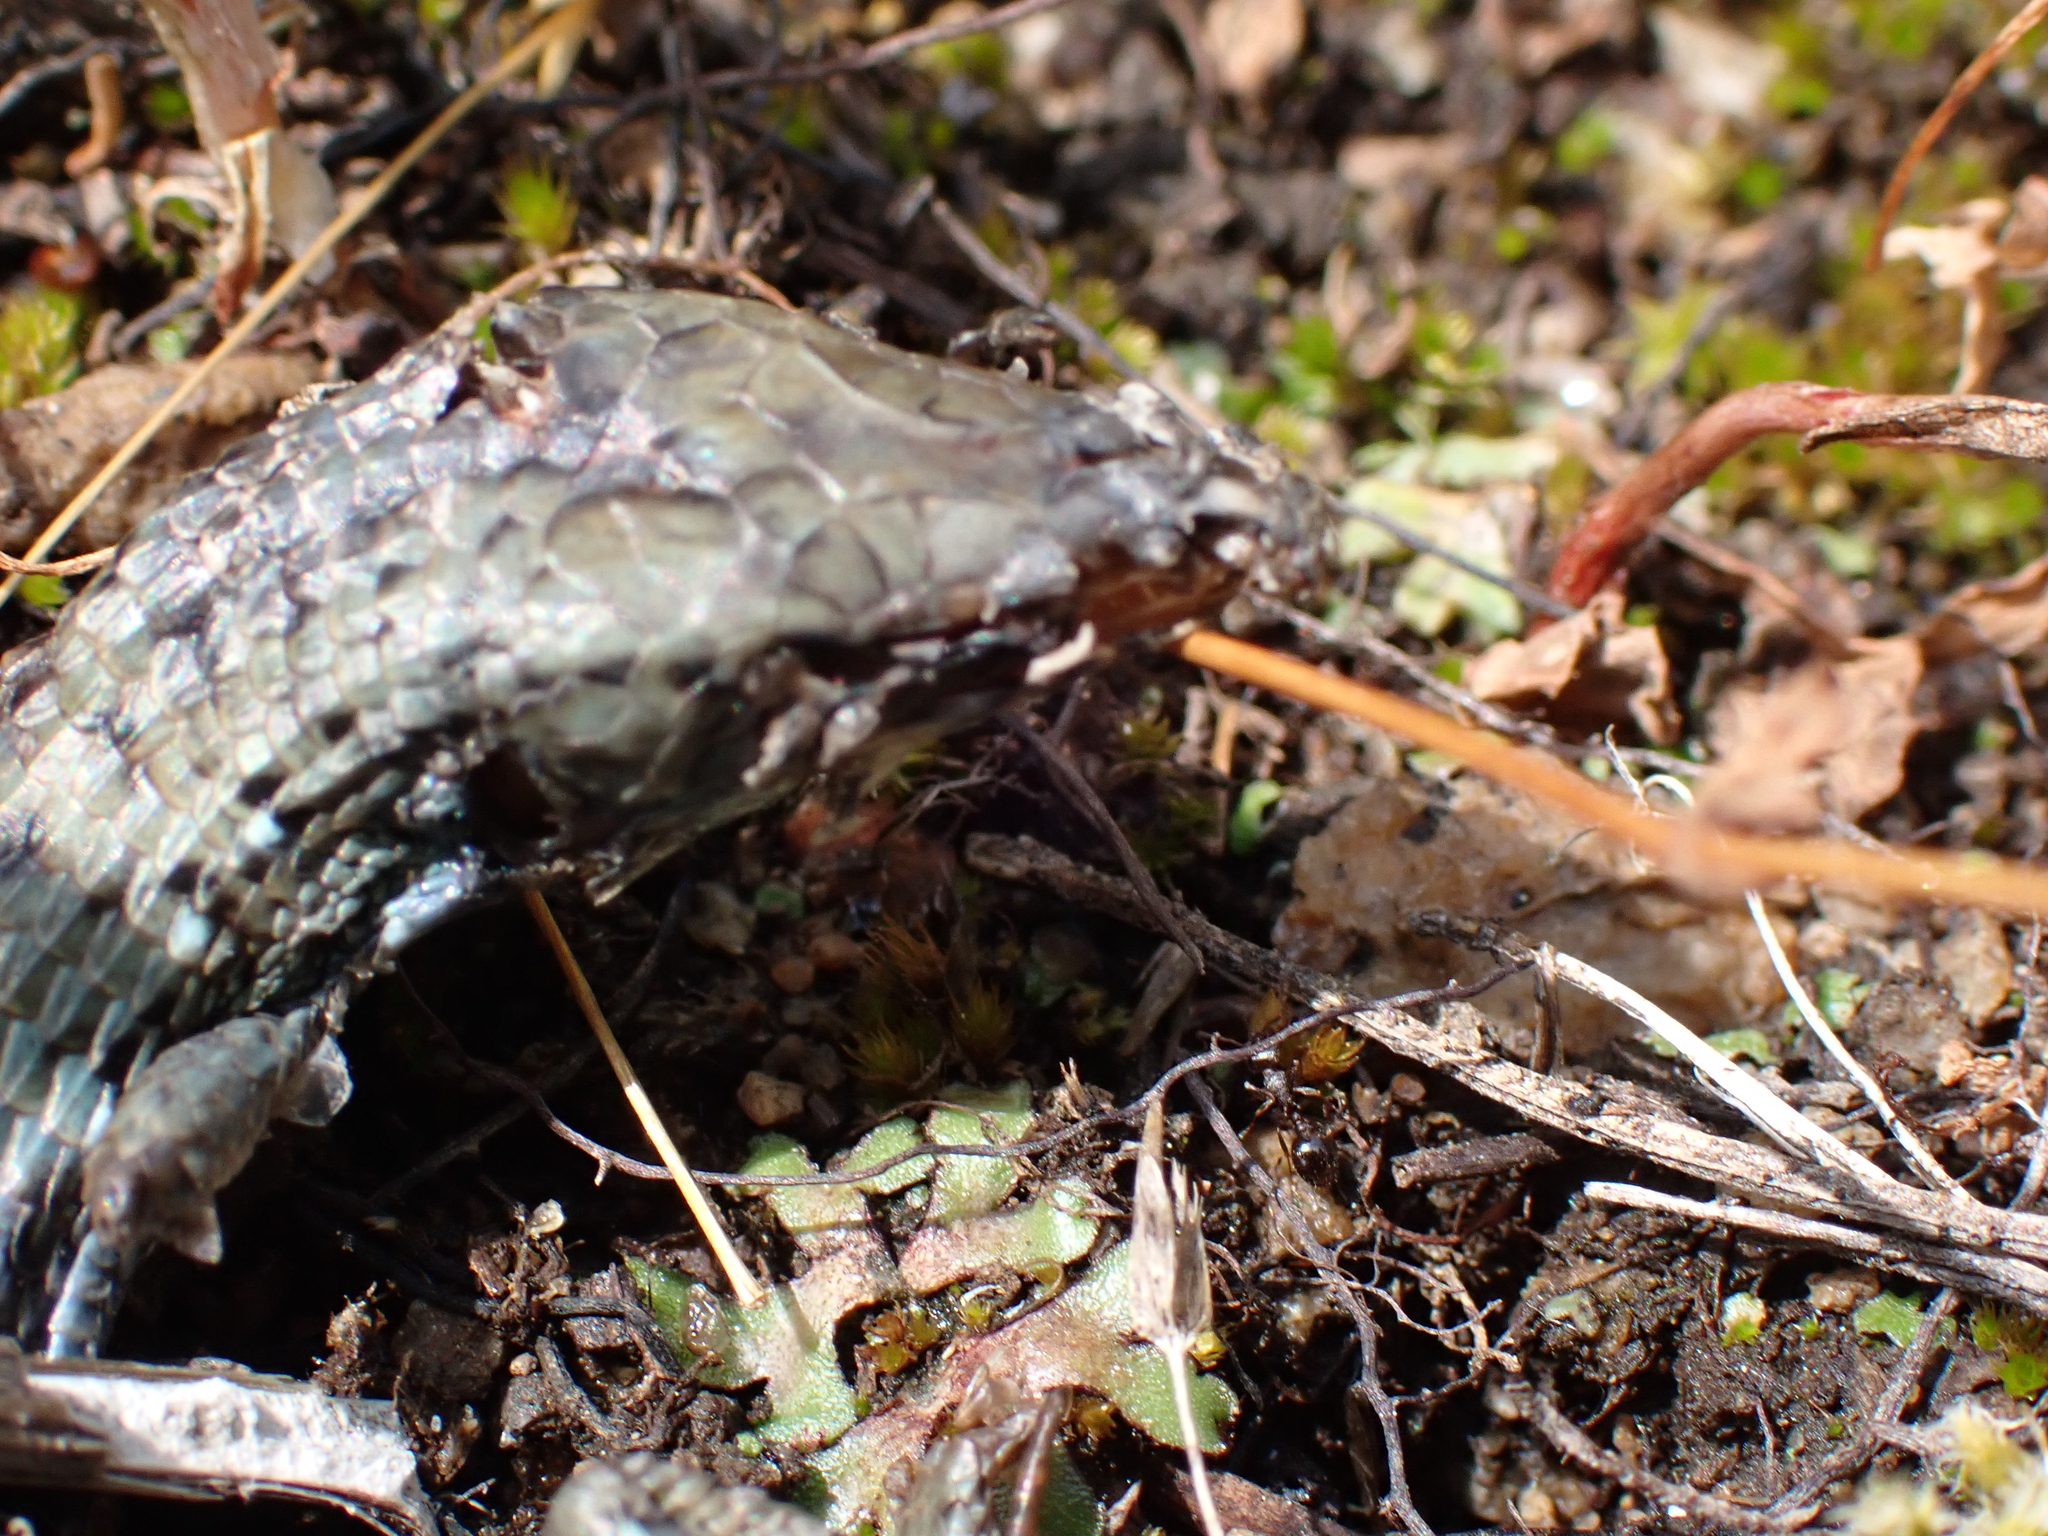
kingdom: Animalia
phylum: Chordata
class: Squamata
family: Anguidae
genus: Elgaria
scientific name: Elgaria coerulea
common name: Northern alligator lizard
